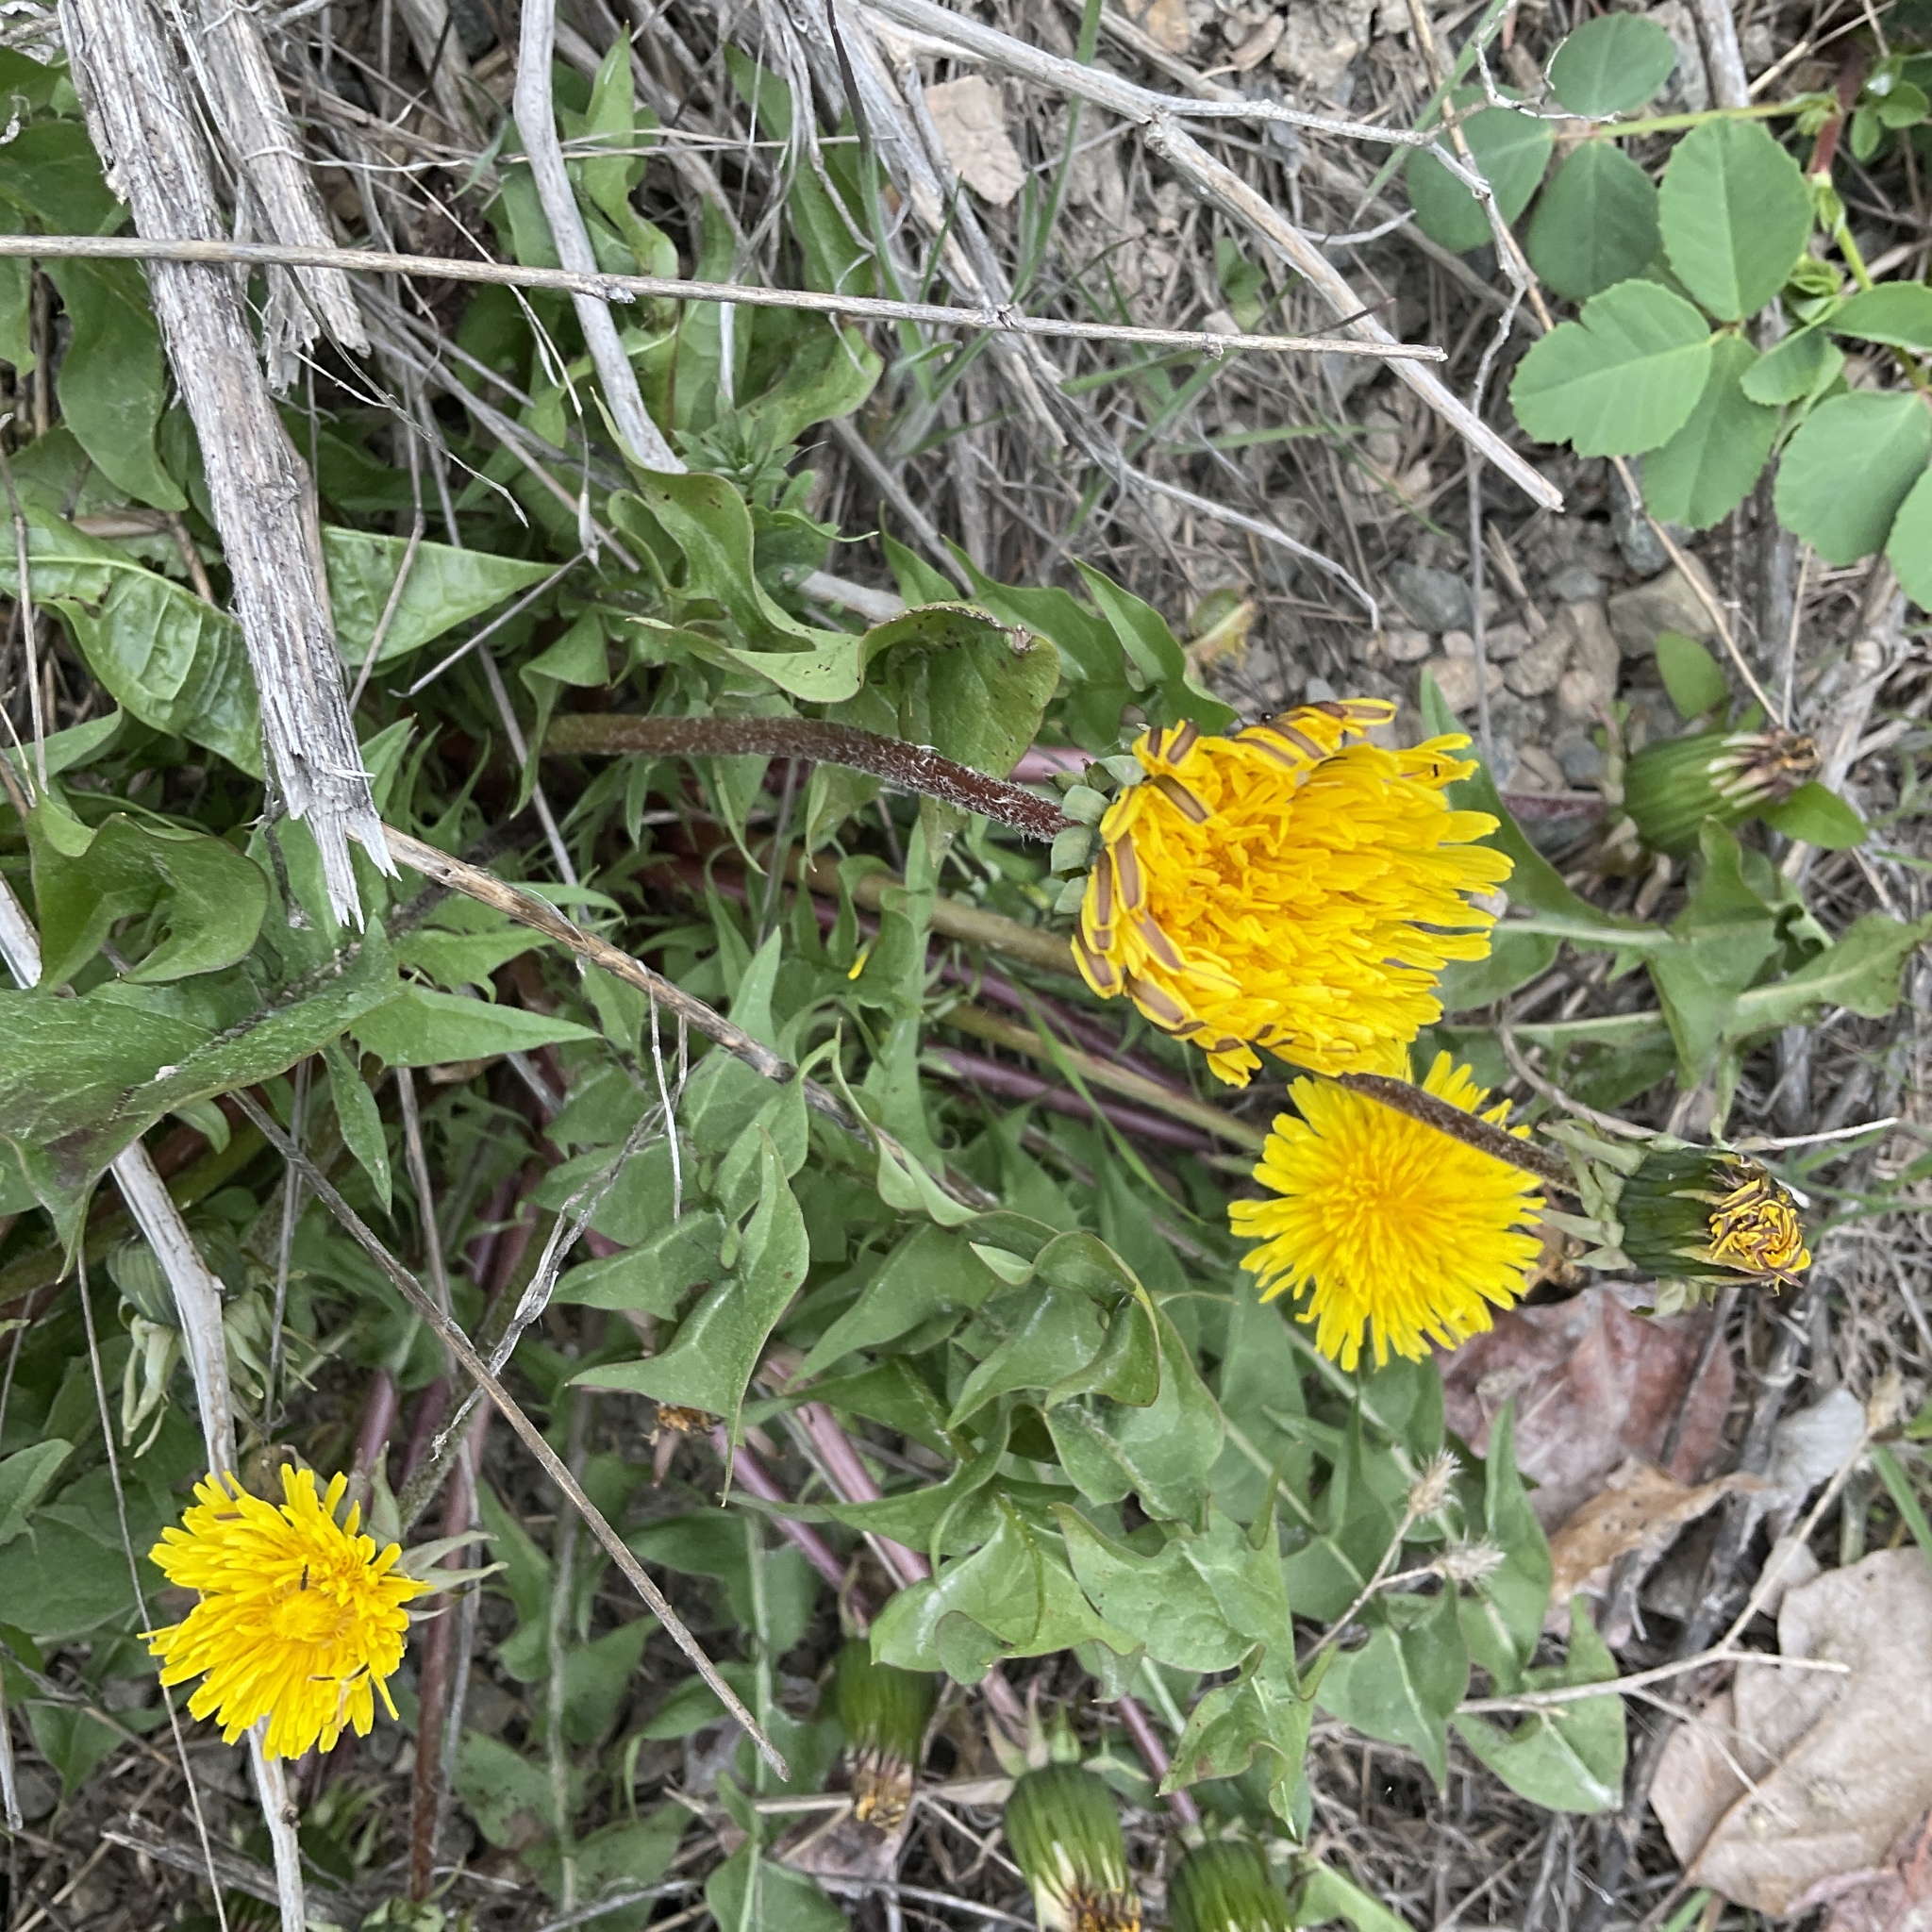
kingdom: Plantae
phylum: Tracheophyta
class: Magnoliopsida
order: Asterales
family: Asteraceae
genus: Taraxacum
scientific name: Taraxacum officinale
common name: Common dandelion
